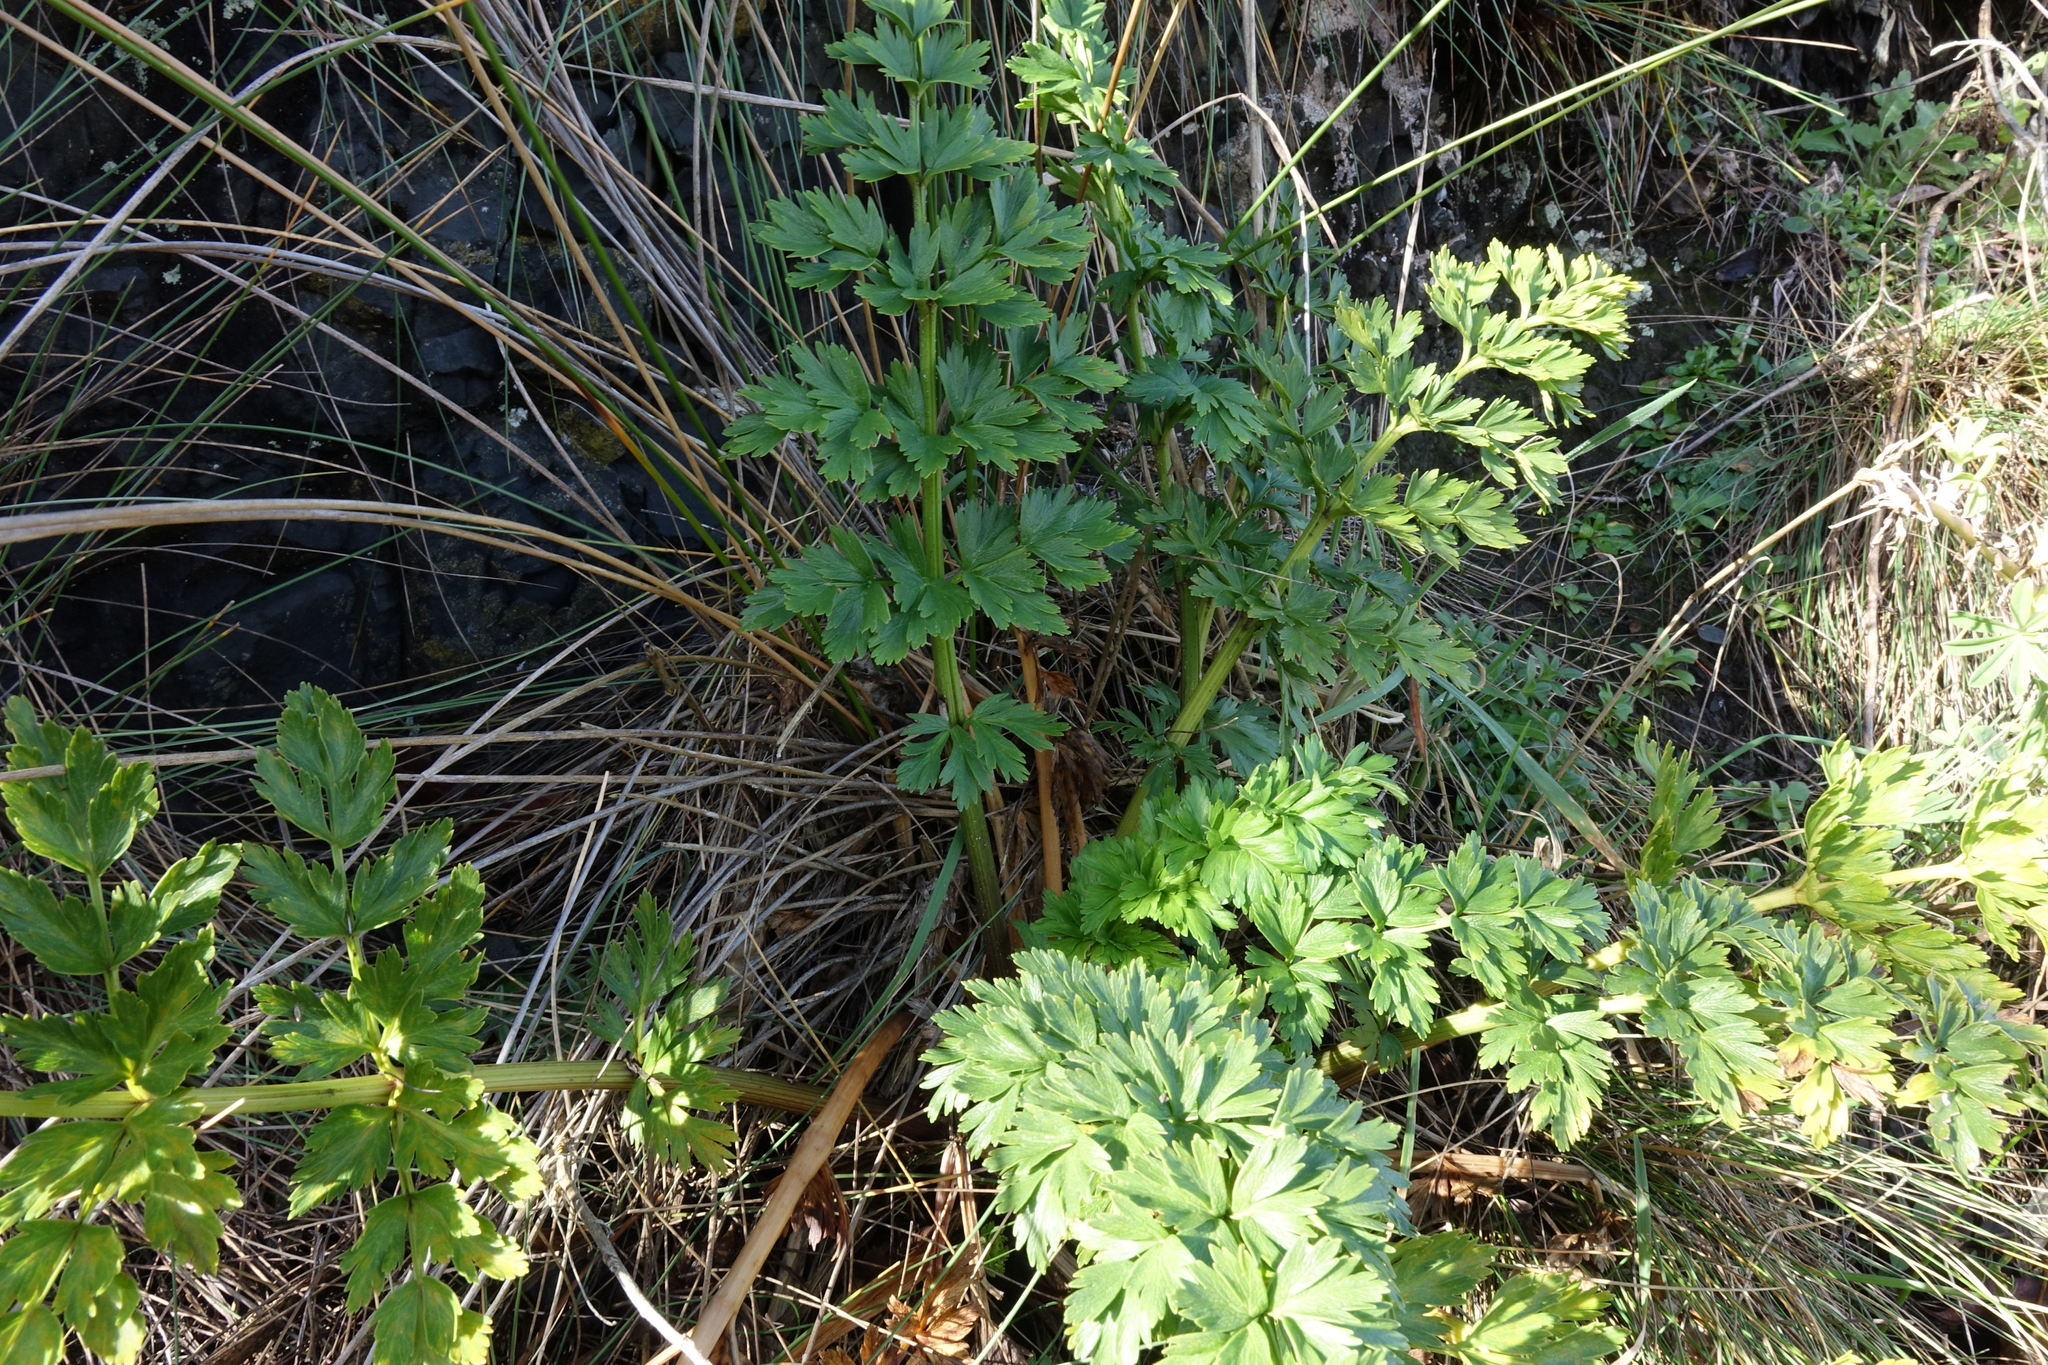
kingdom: Plantae
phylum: Tracheophyta
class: Magnoliopsida
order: Apiales
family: Apiaceae
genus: Anisotome
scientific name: Anisotome lyallii
